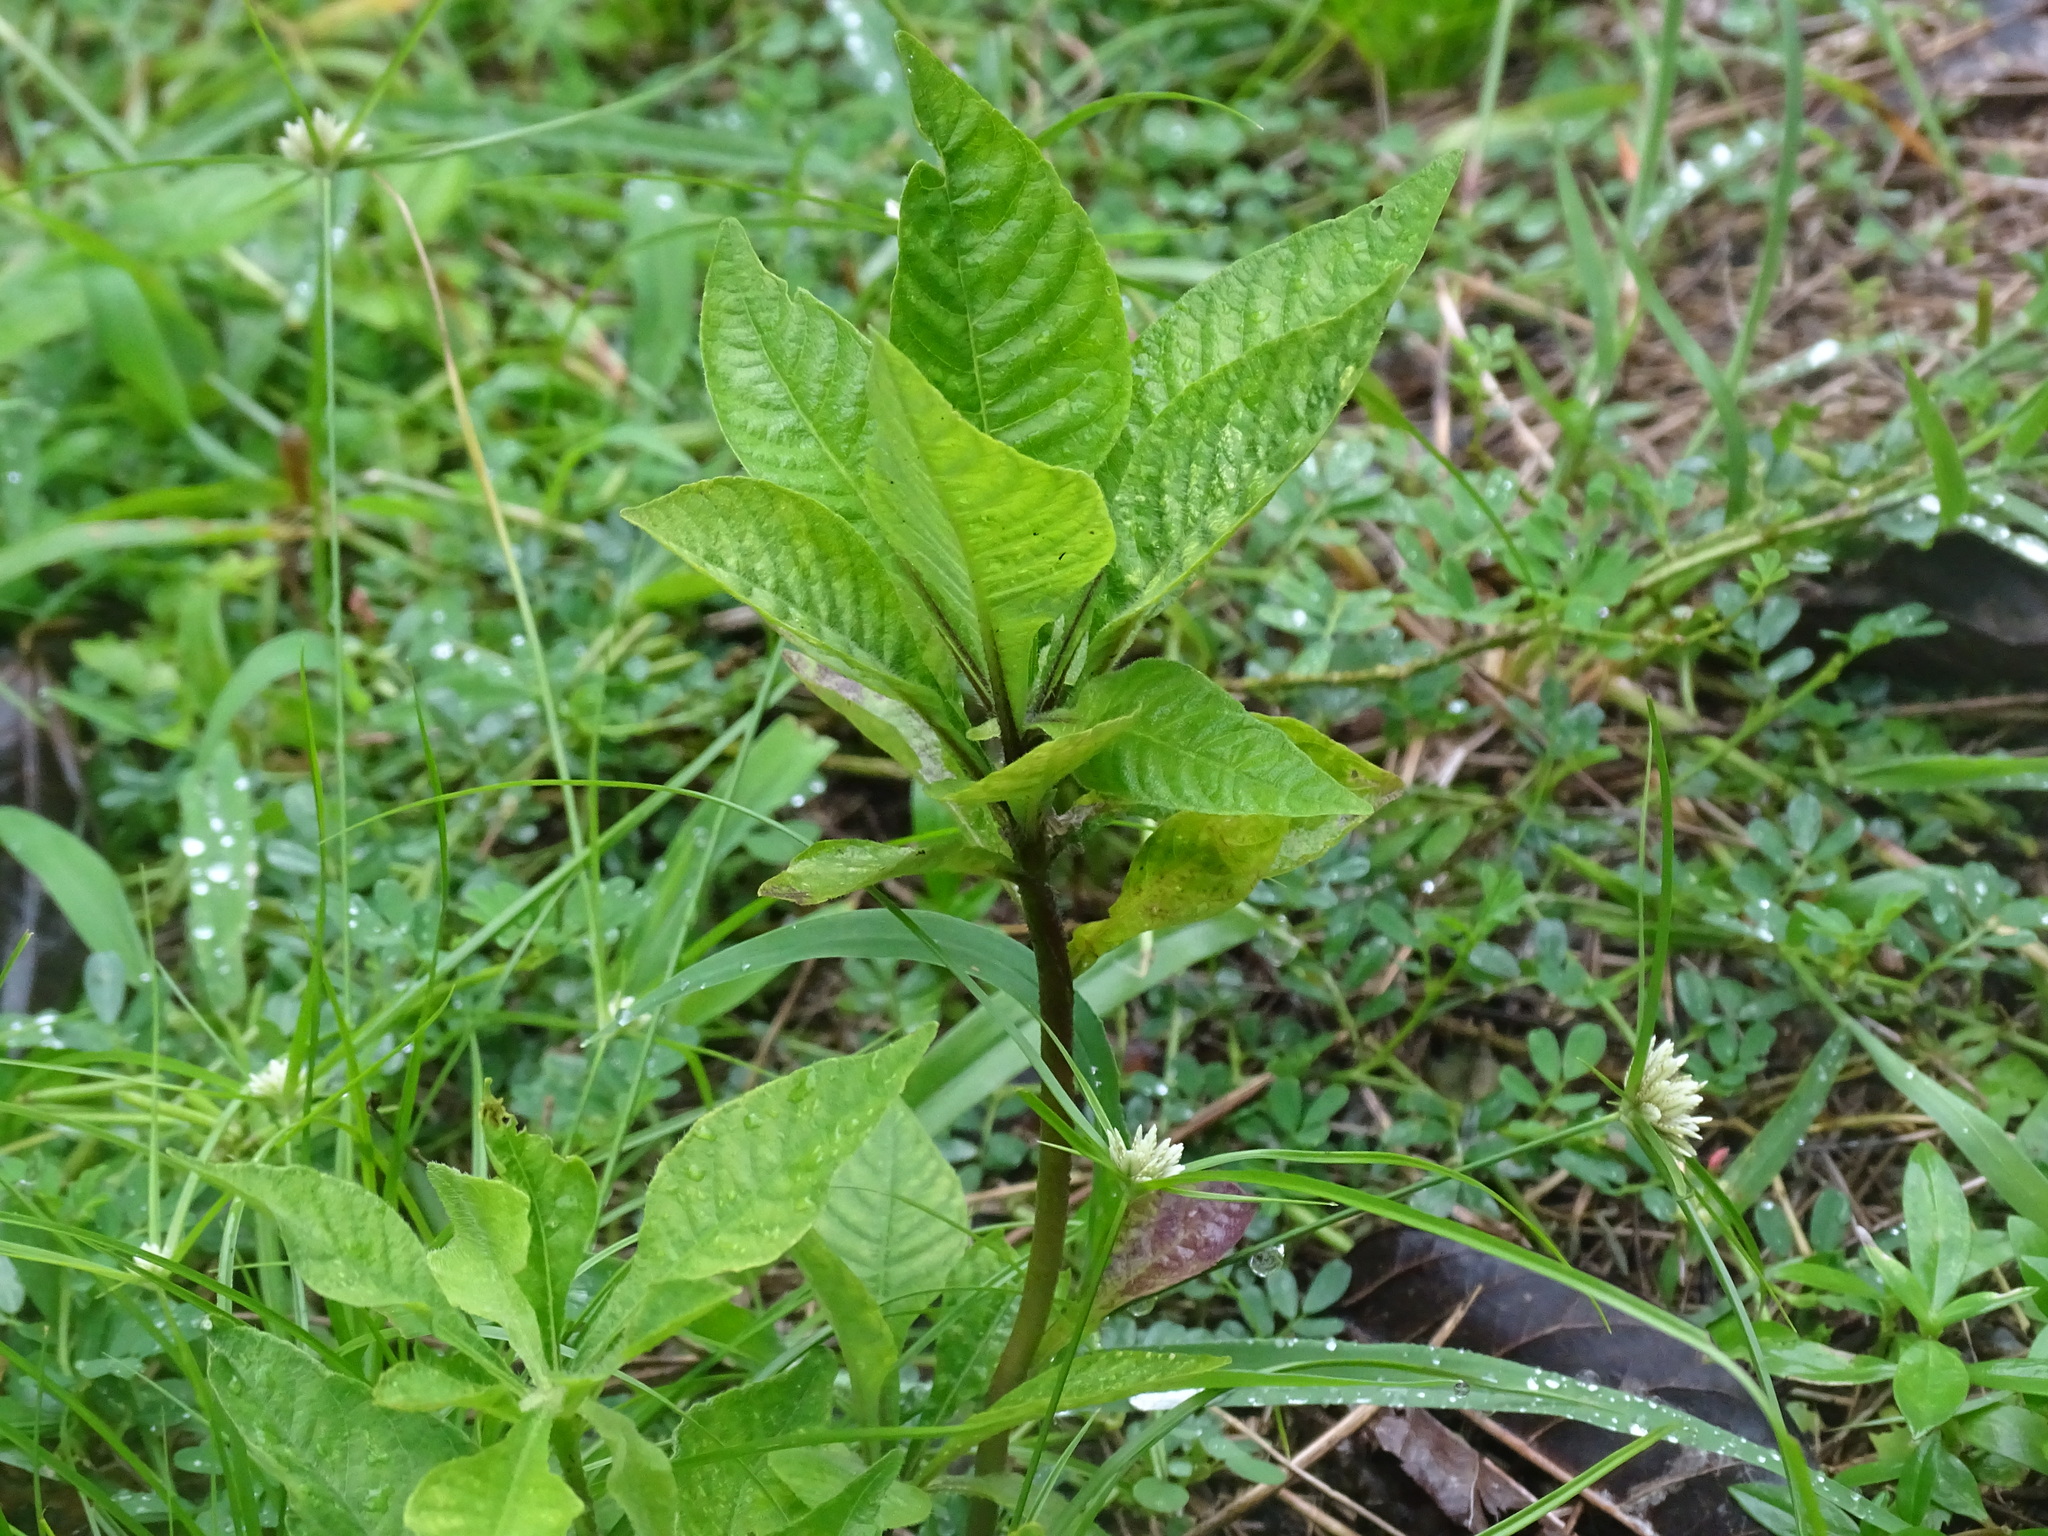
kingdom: Plantae
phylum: Tracheophyta
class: Magnoliopsida
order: Lamiales
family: Acanthaceae
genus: Elytraria
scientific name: Elytraria imbricata
